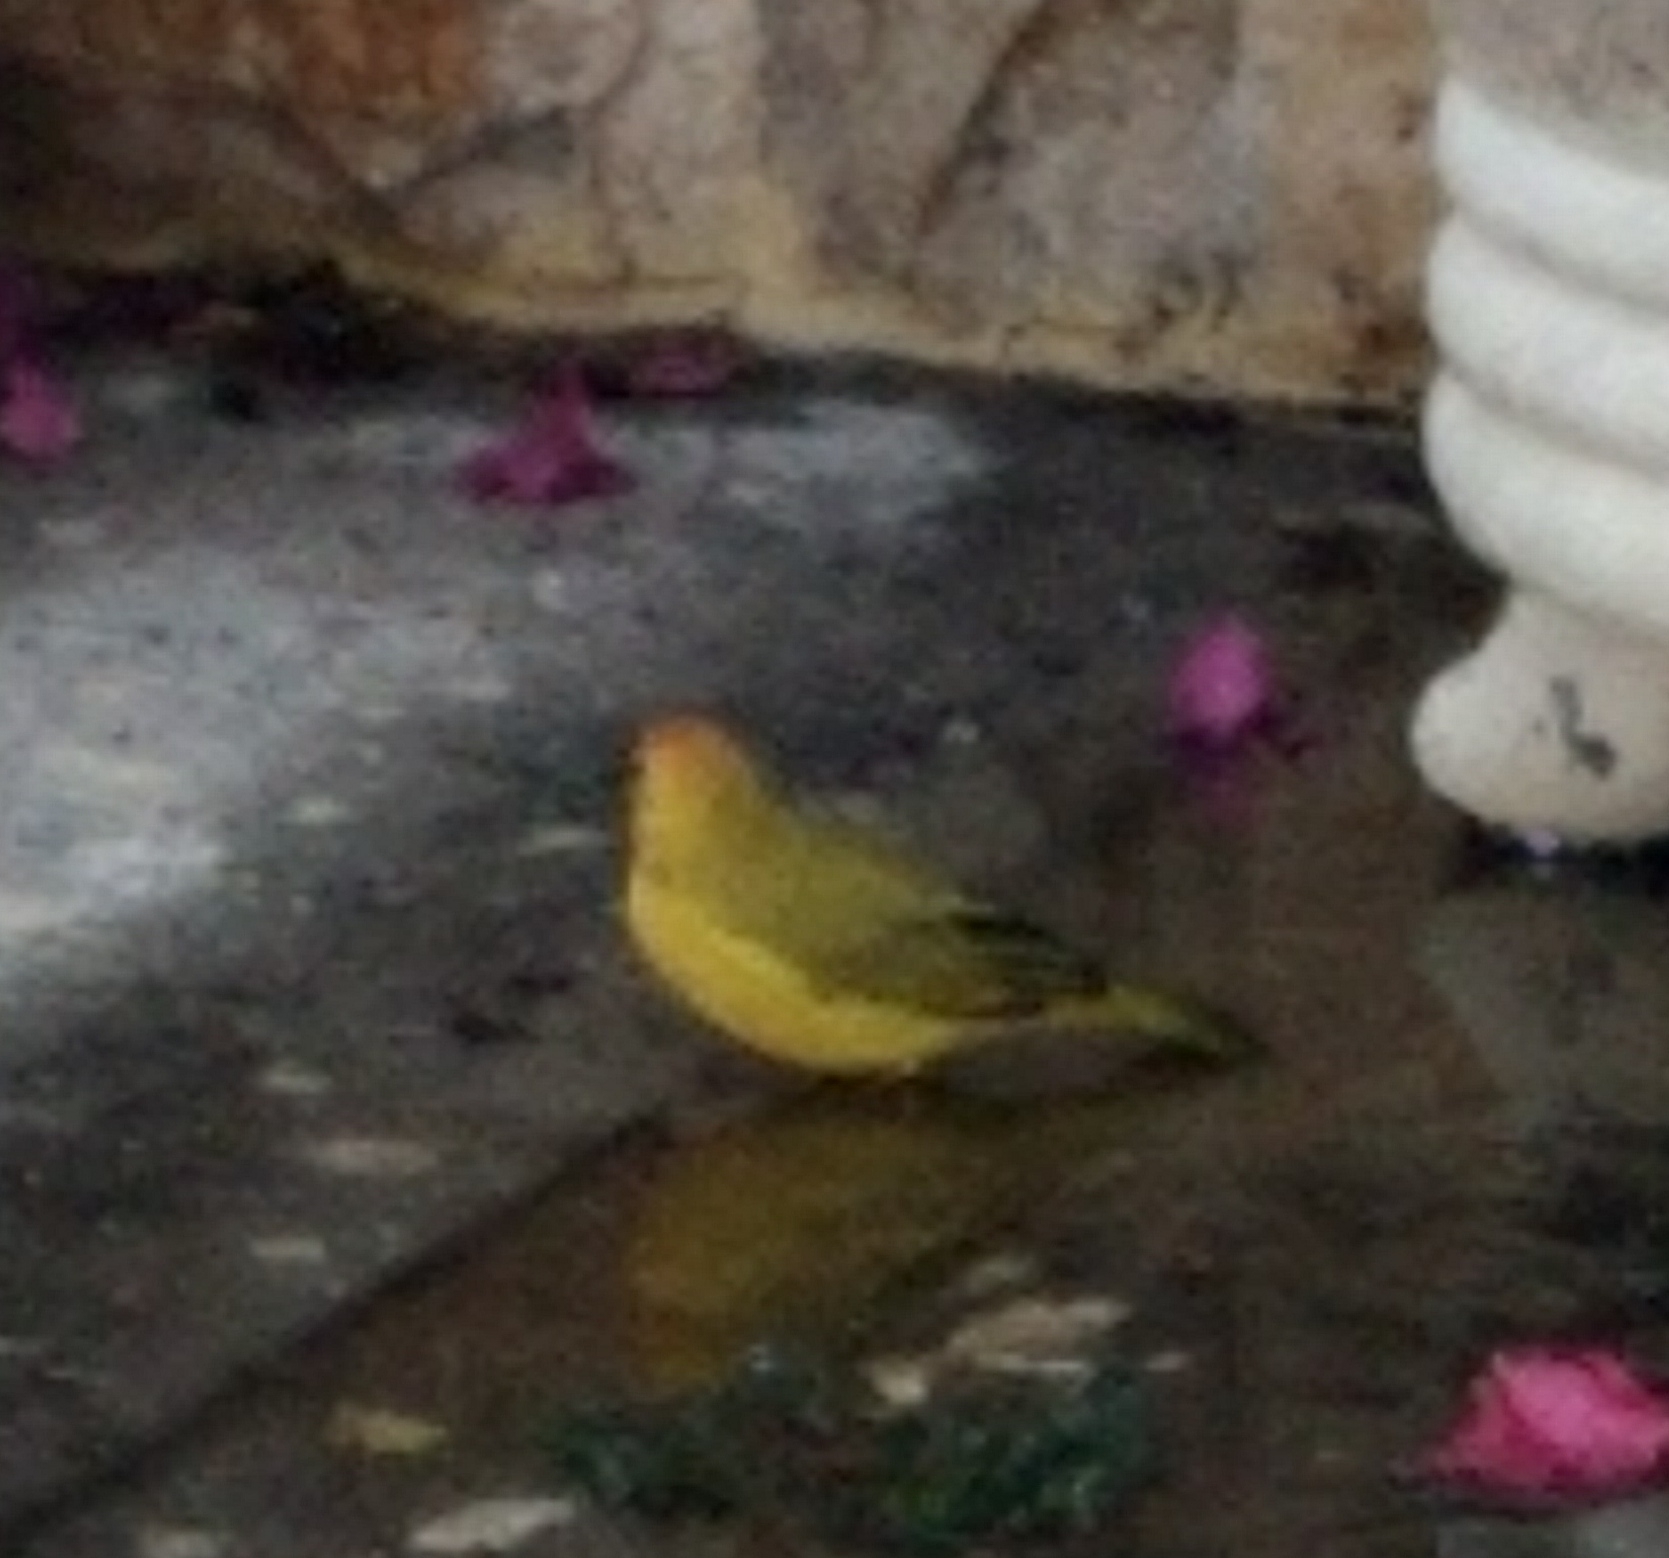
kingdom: Animalia
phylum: Chordata
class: Aves
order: Passeriformes
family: Thraupidae
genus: Sicalis
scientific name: Sicalis flaveola
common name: Saffron finch
